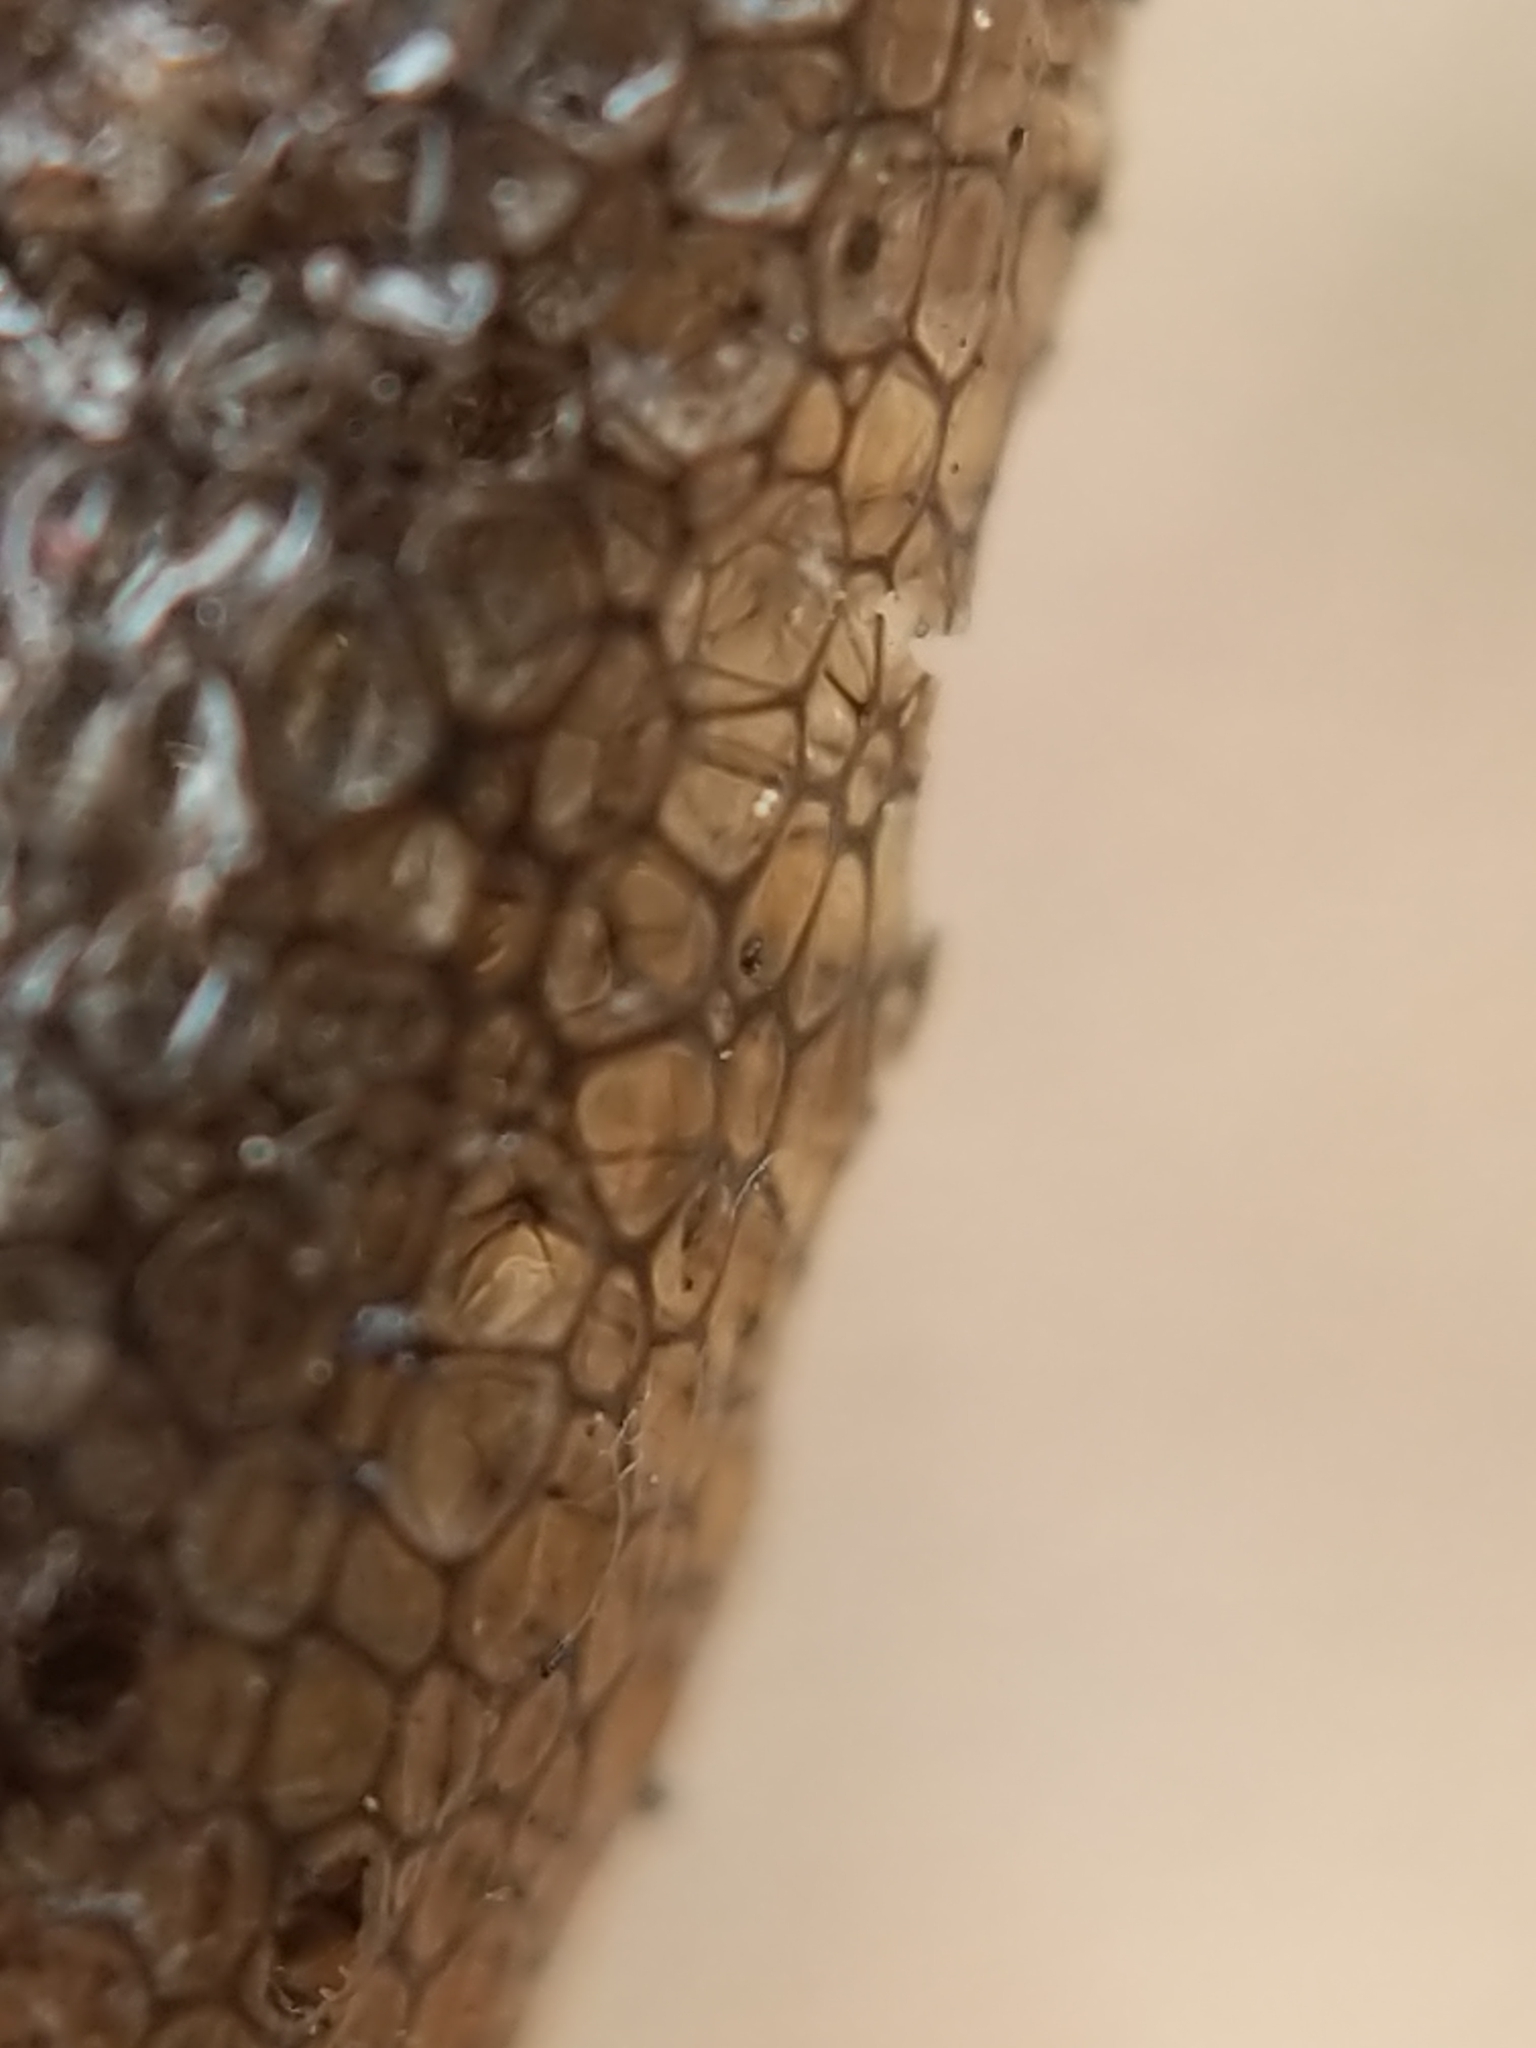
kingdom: Animalia
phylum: Arthropoda
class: Insecta
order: Lepidoptera
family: Lasiocampidae
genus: Malacosoma
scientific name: Malacosoma americana
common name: Eastern tent caterpillar moth
